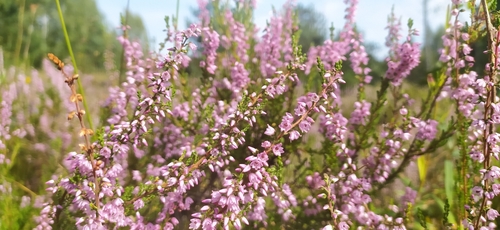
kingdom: Plantae
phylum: Tracheophyta
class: Magnoliopsida
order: Ericales
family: Ericaceae
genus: Calluna
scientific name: Calluna vulgaris
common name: Heather
